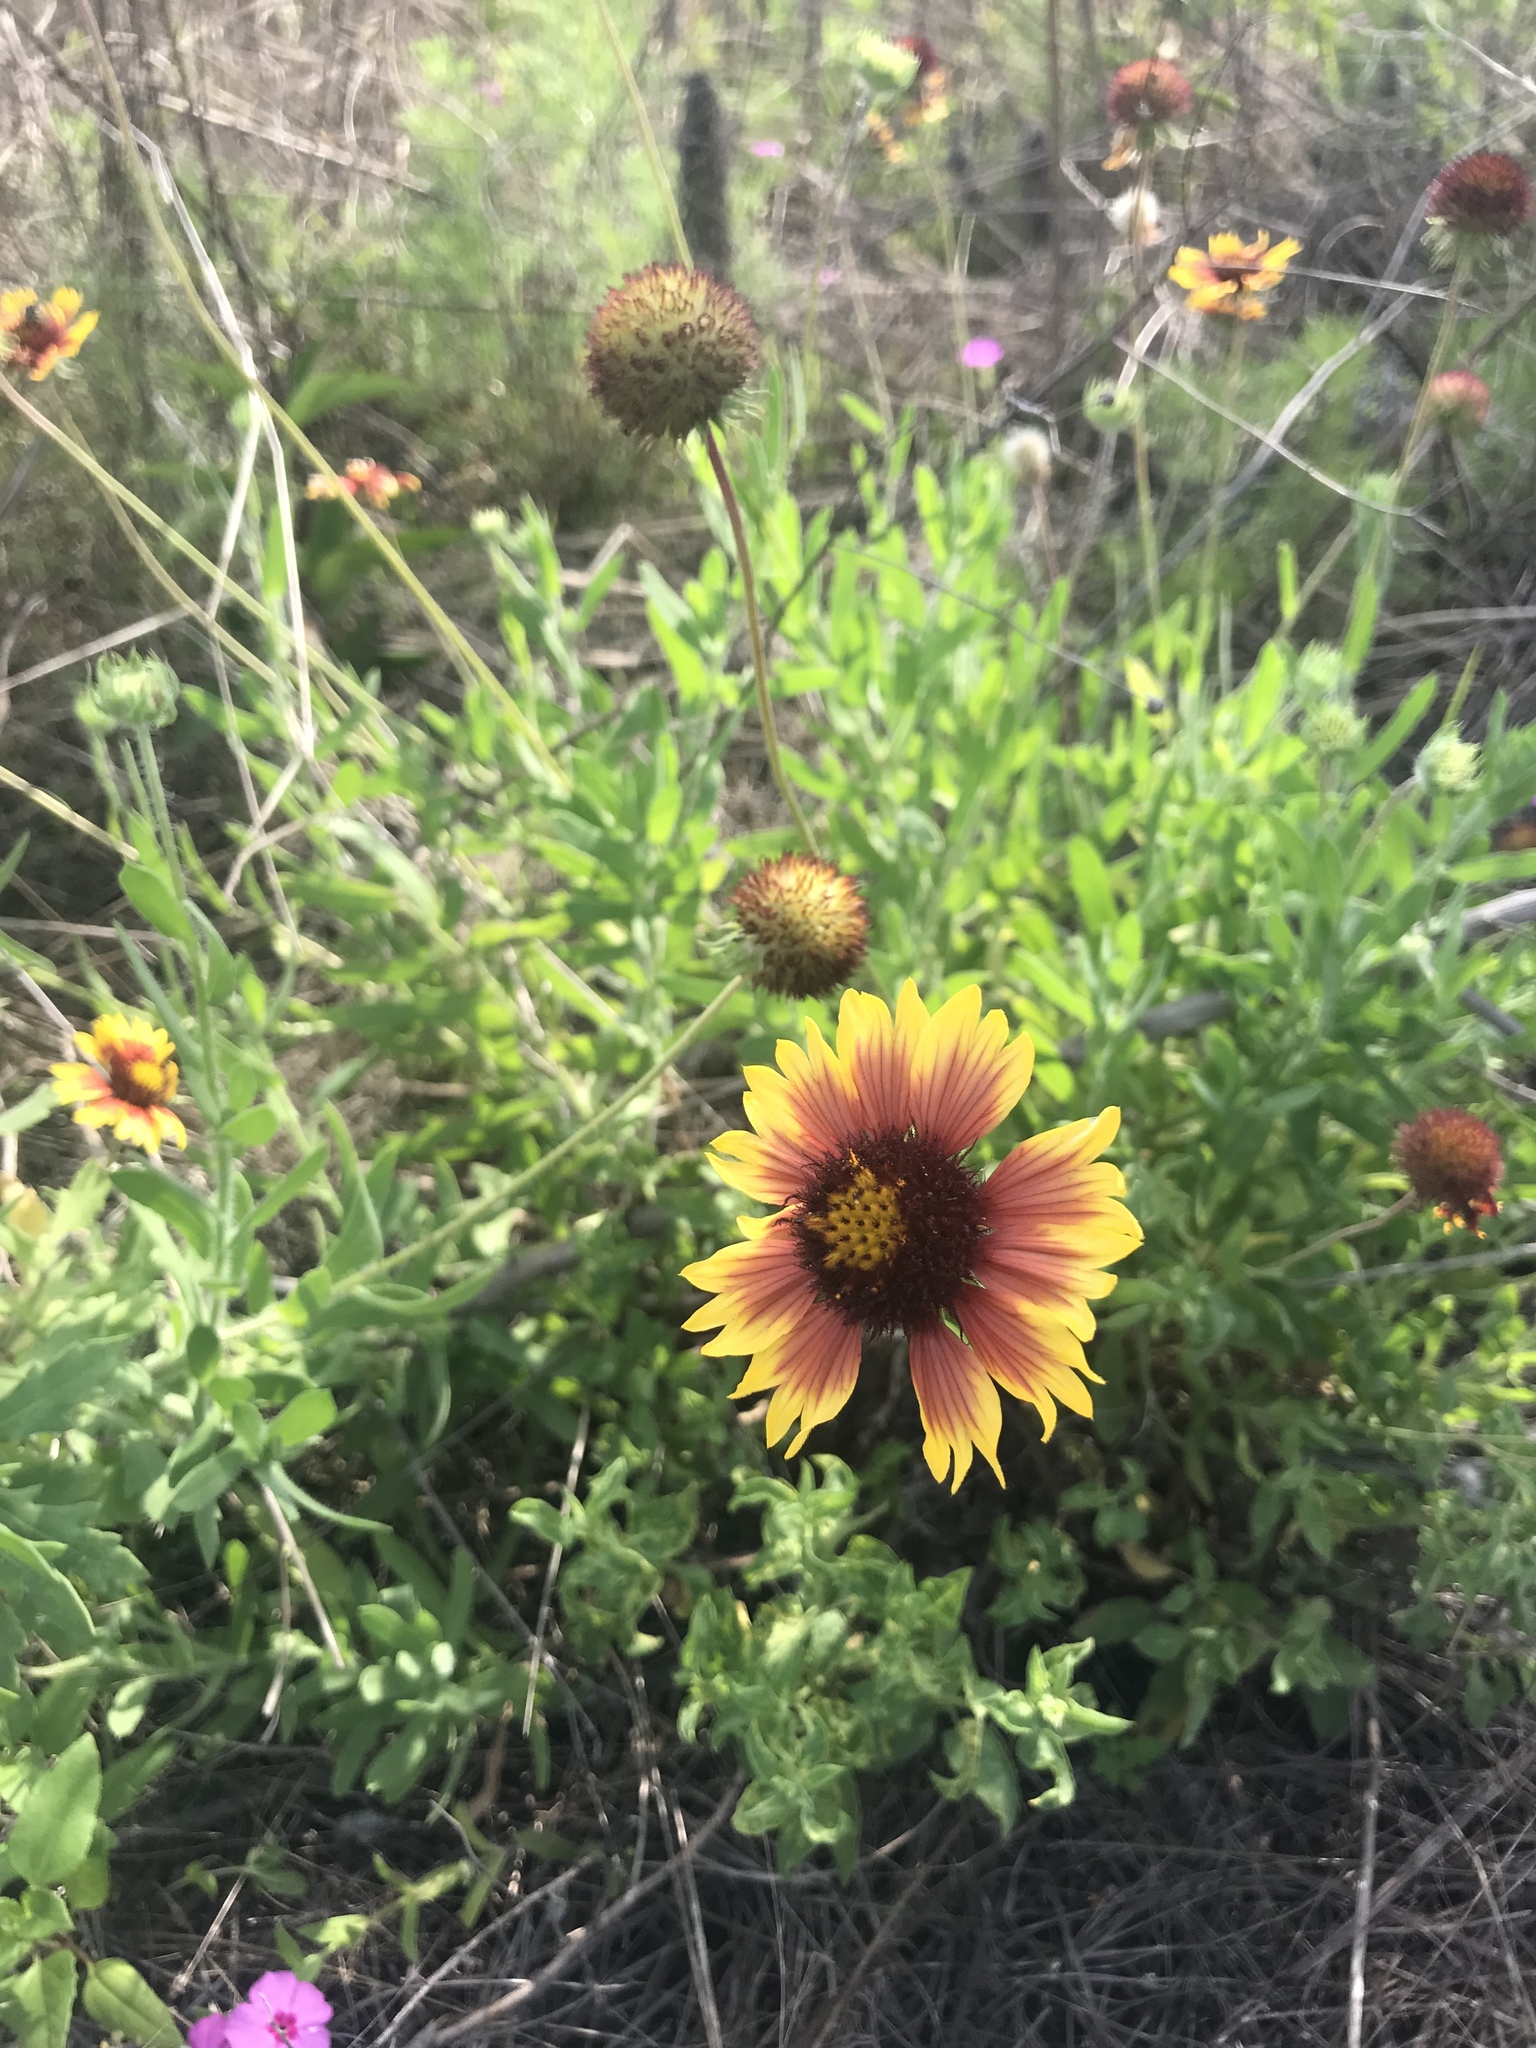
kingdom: Plantae
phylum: Tracheophyta
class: Magnoliopsida
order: Asterales
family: Asteraceae
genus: Gaillardia
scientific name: Gaillardia pulchella
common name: Firewheel
